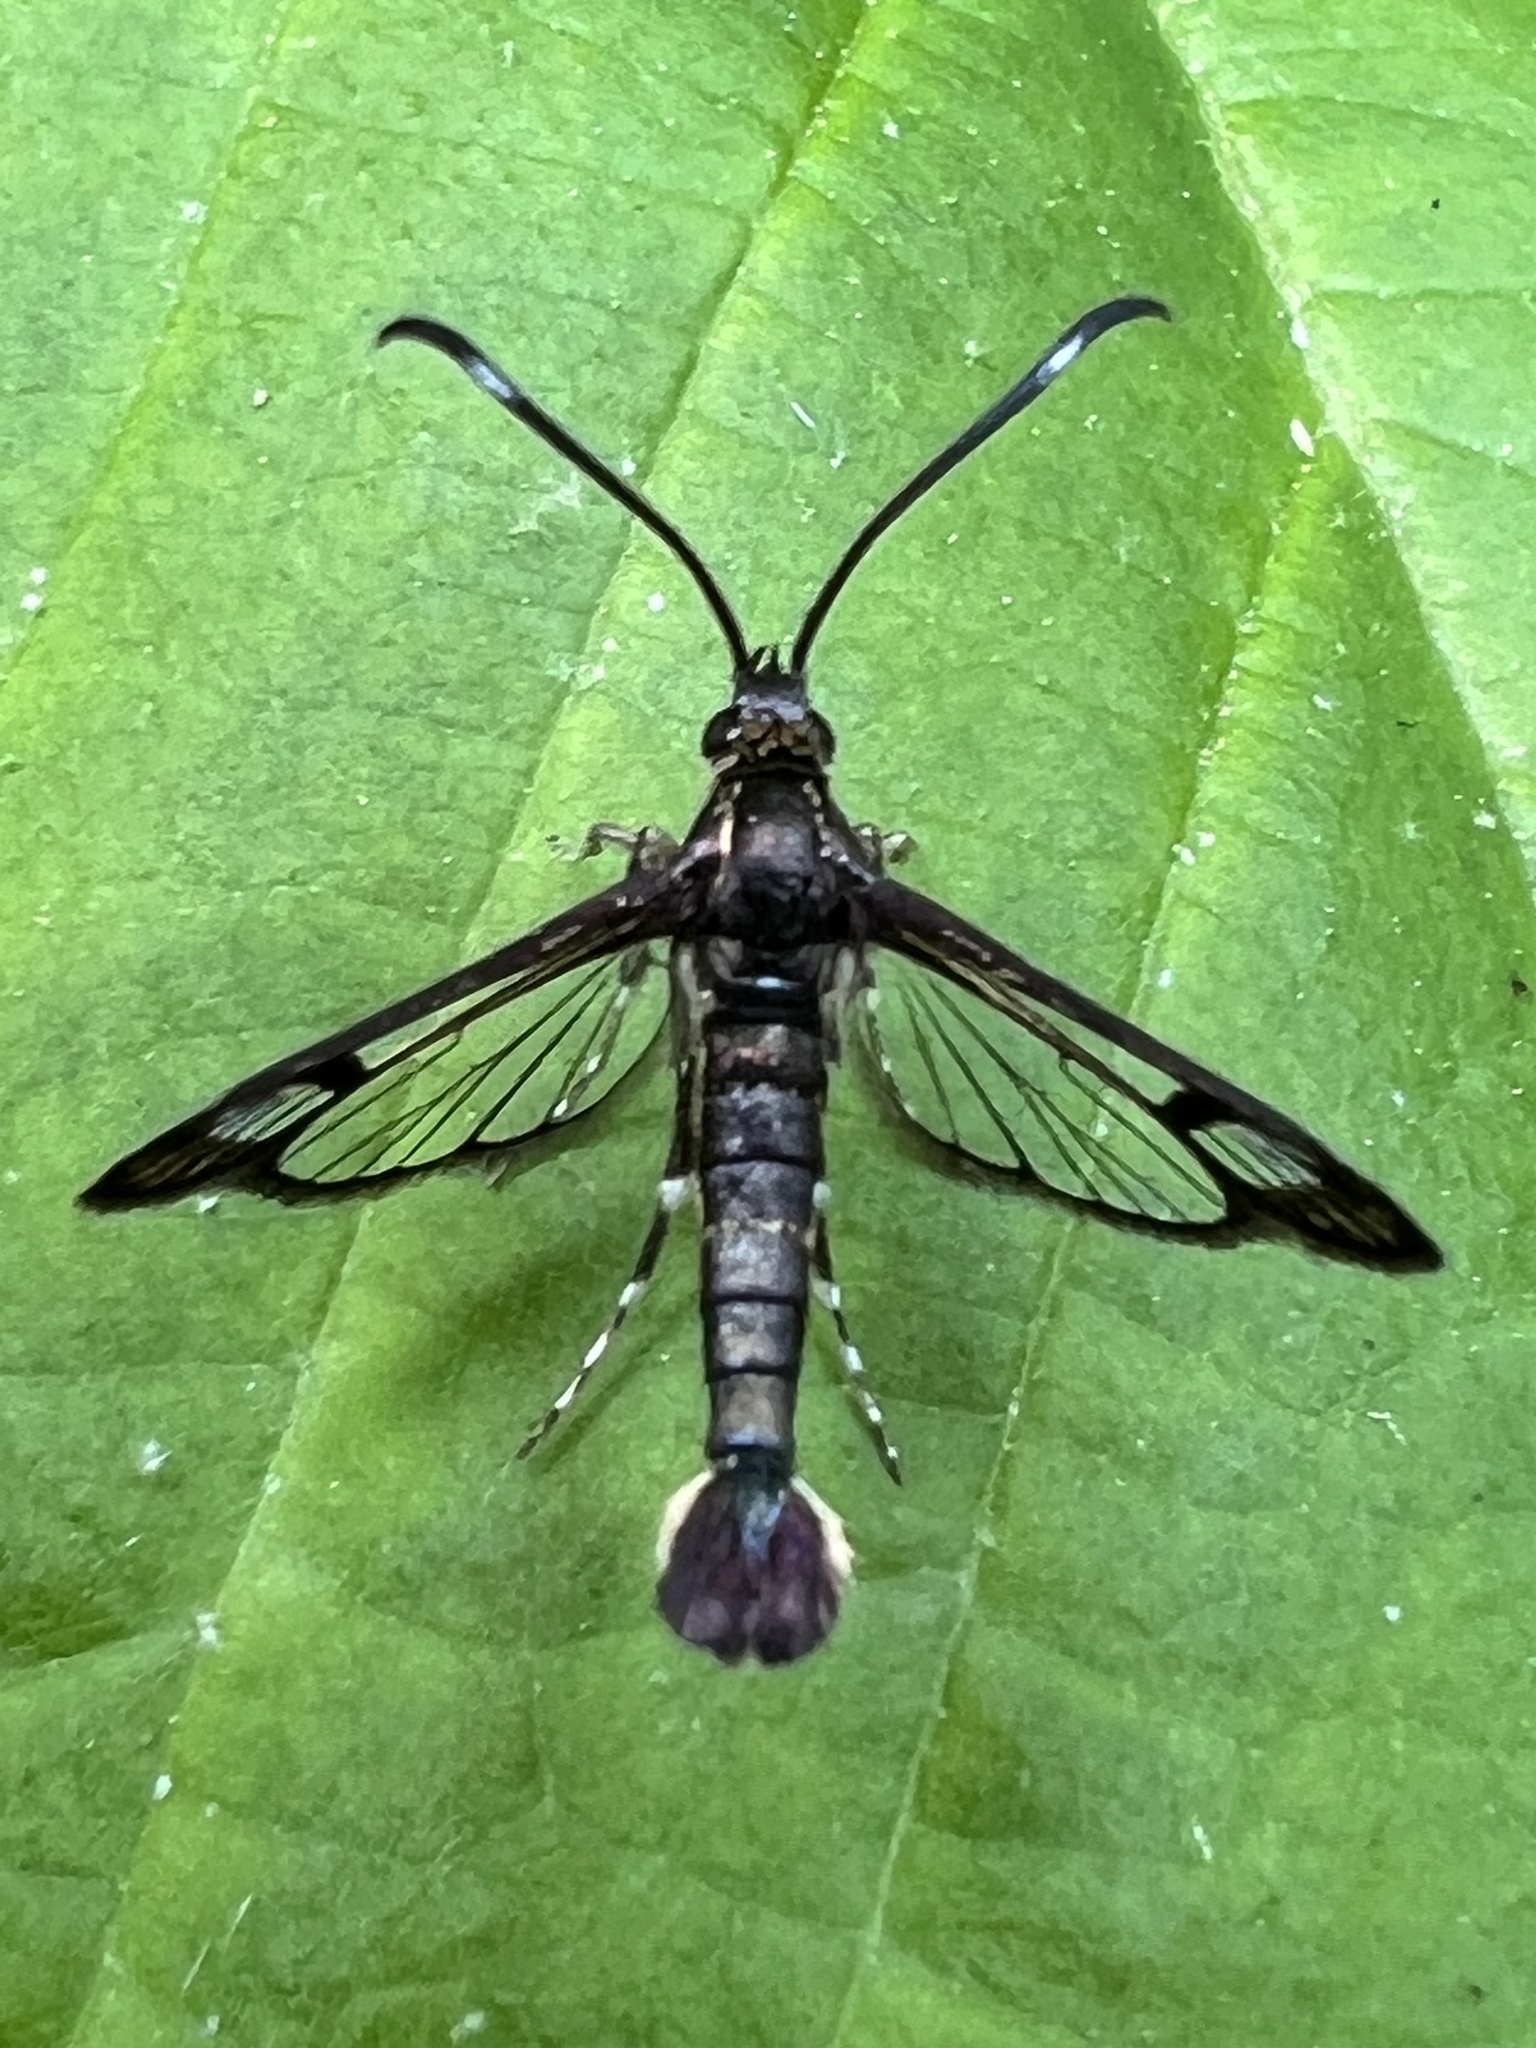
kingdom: Animalia
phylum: Arthropoda
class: Insecta
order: Lepidoptera
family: Sesiidae
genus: Carmenta
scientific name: Carmenta ithacae
